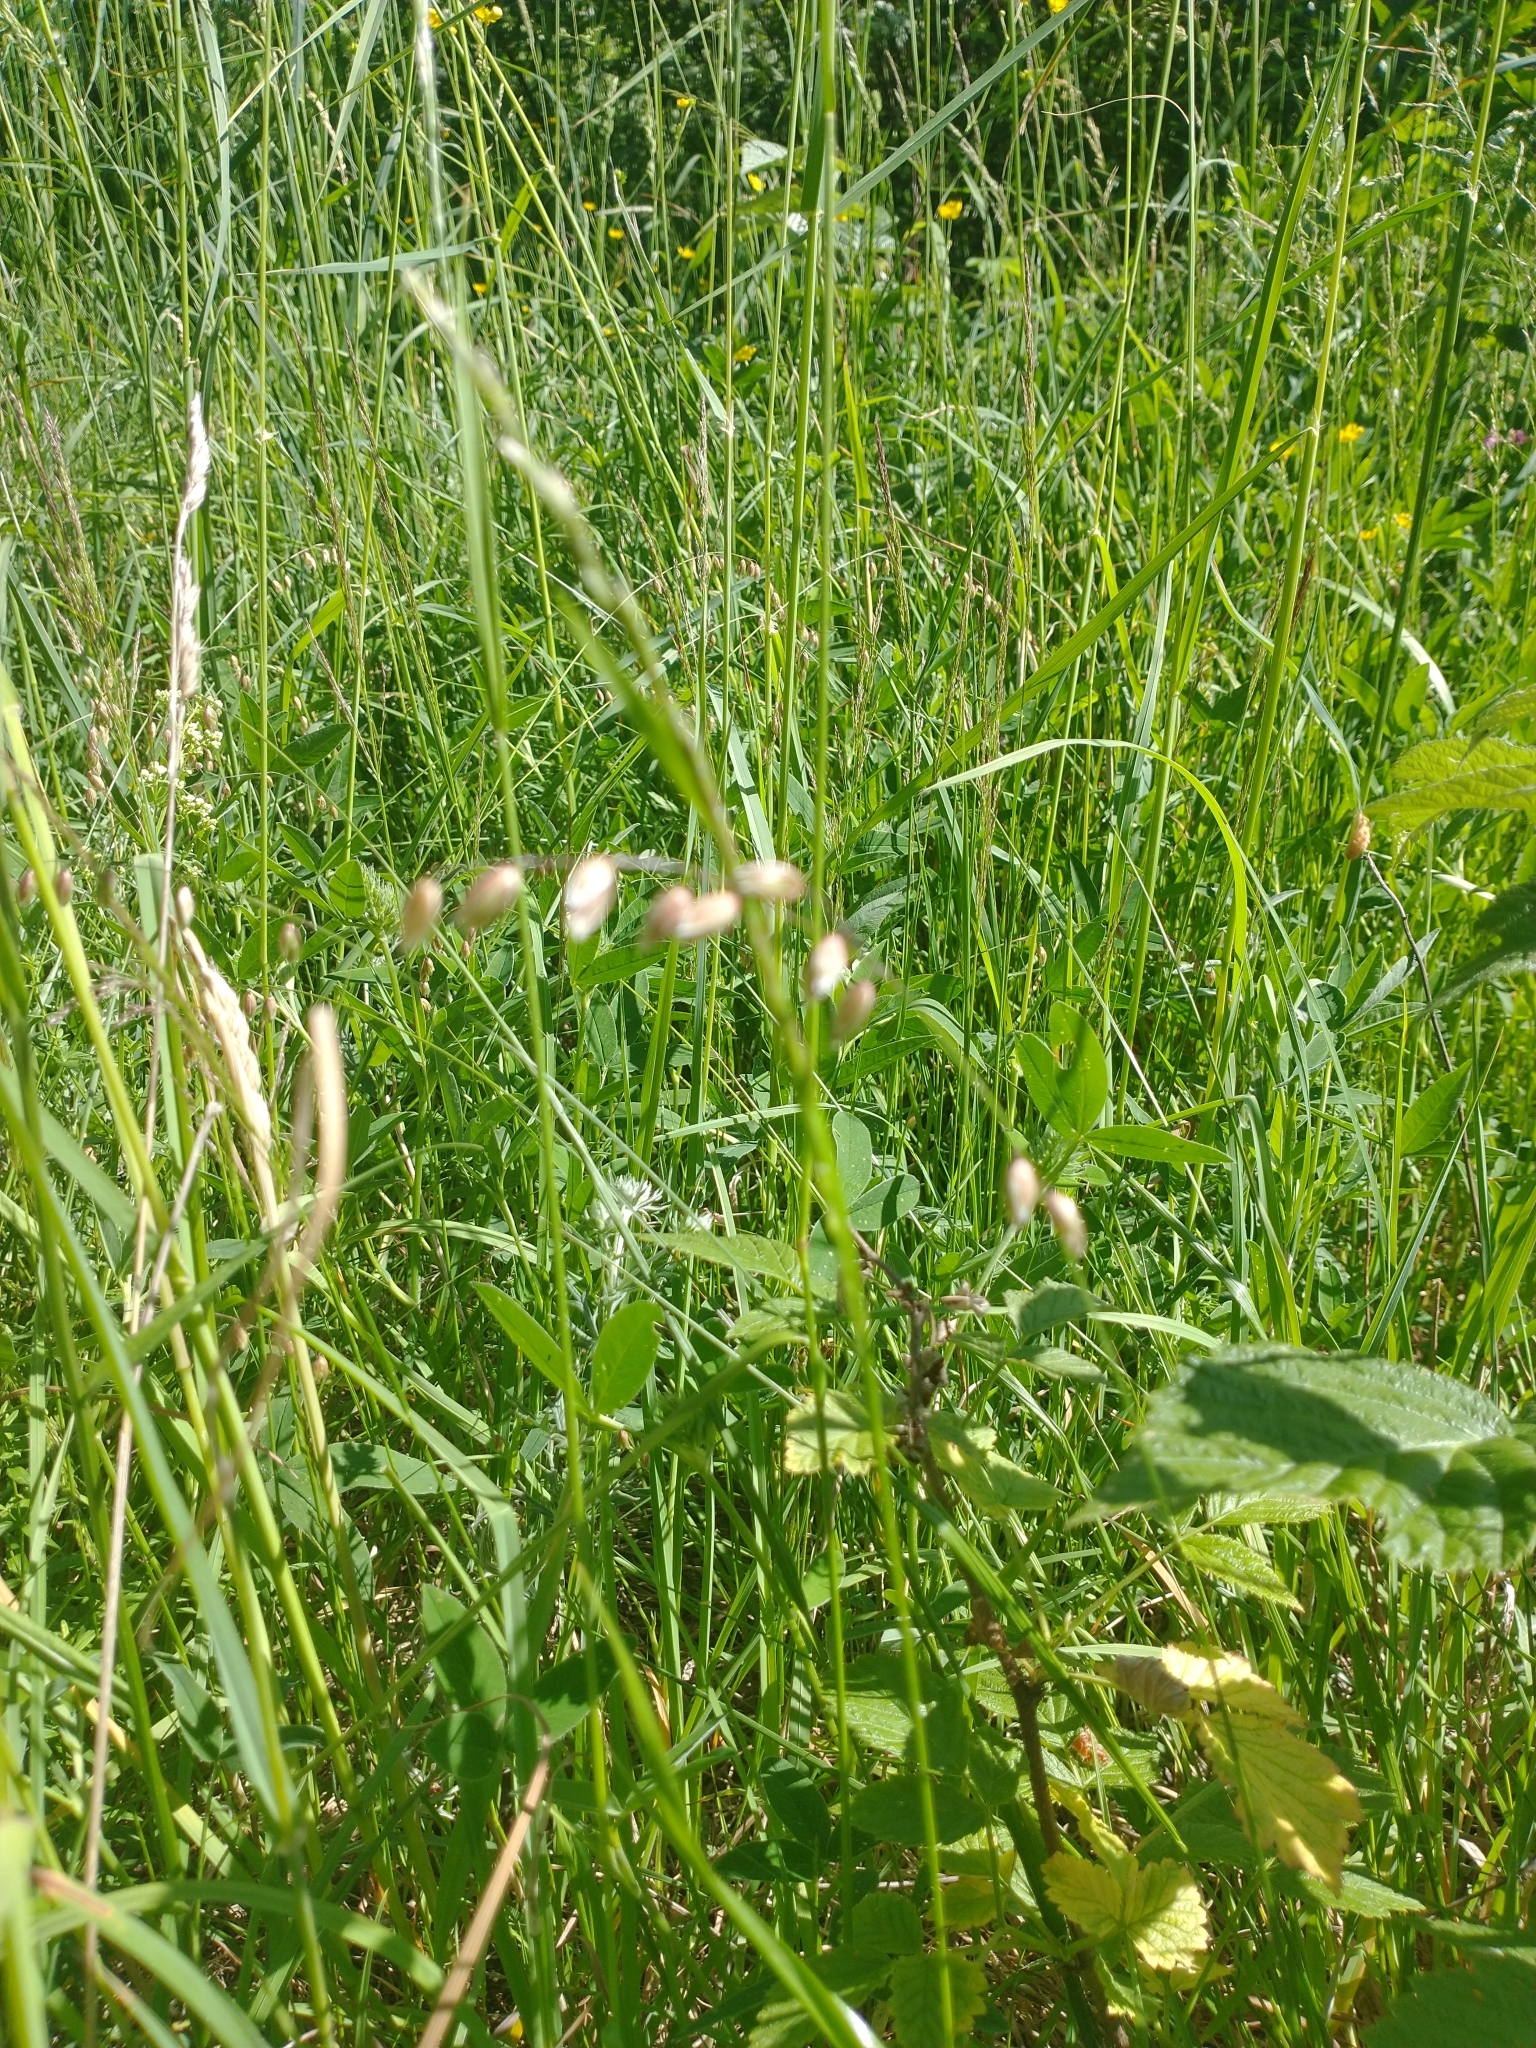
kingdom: Plantae
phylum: Tracheophyta
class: Liliopsida
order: Poales
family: Poaceae
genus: Melica
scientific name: Melica nutans
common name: Mountain melick
